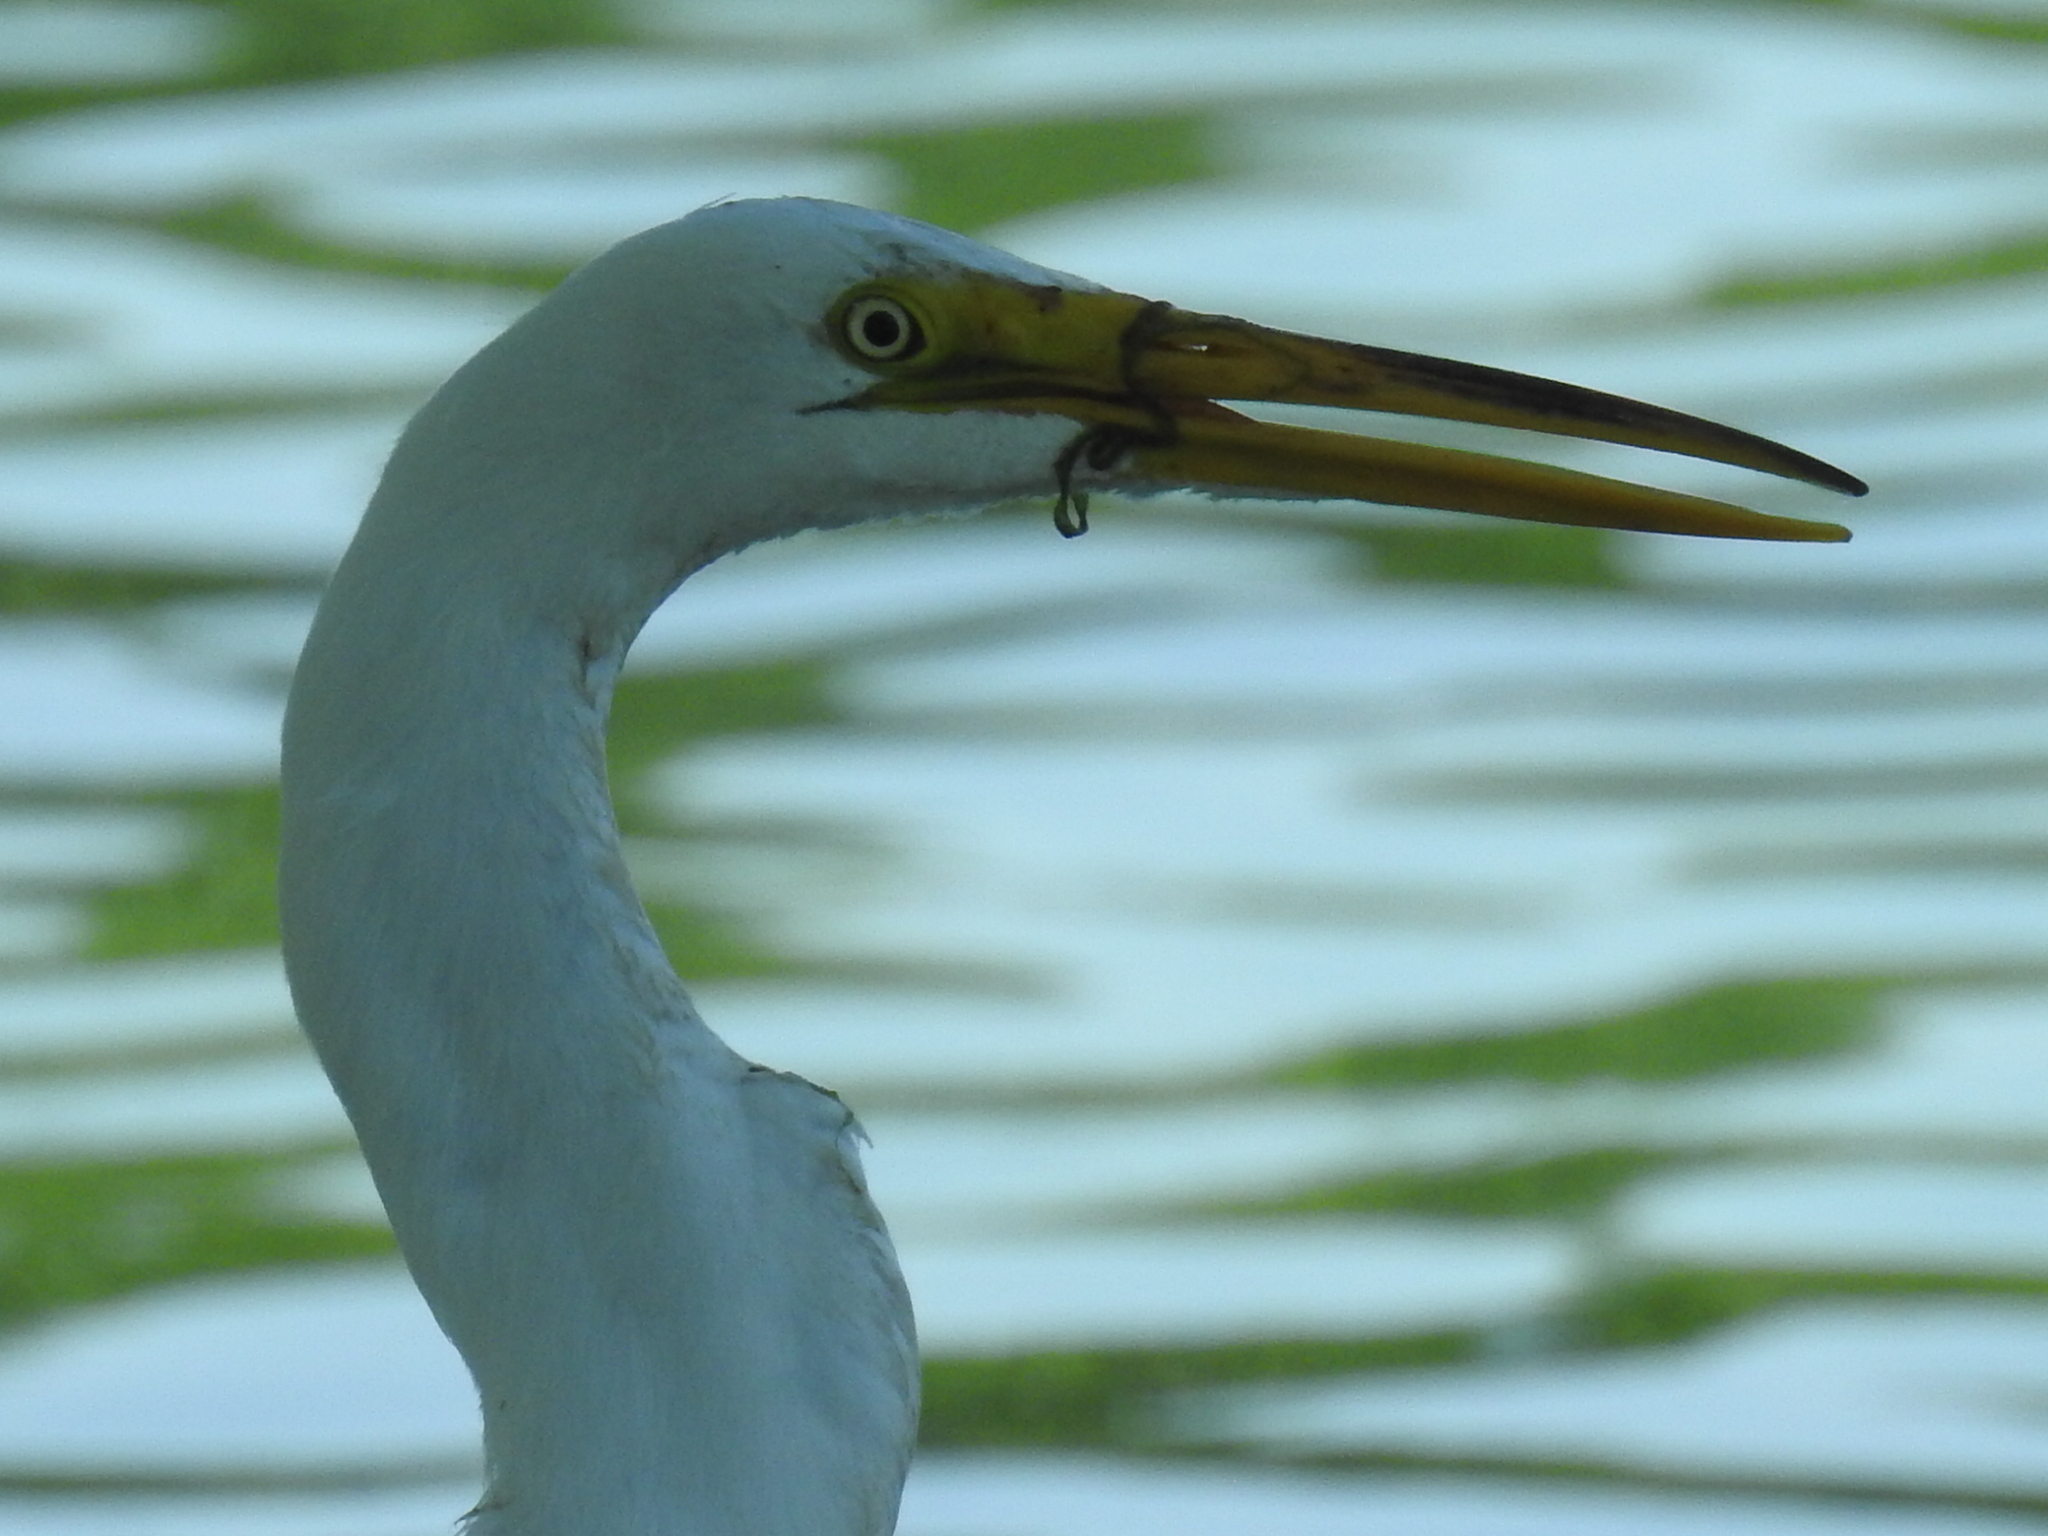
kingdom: Animalia
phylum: Chordata
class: Aves
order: Pelecaniformes
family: Ardeidae
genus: Ardea
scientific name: Ardea alba
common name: Great egret
